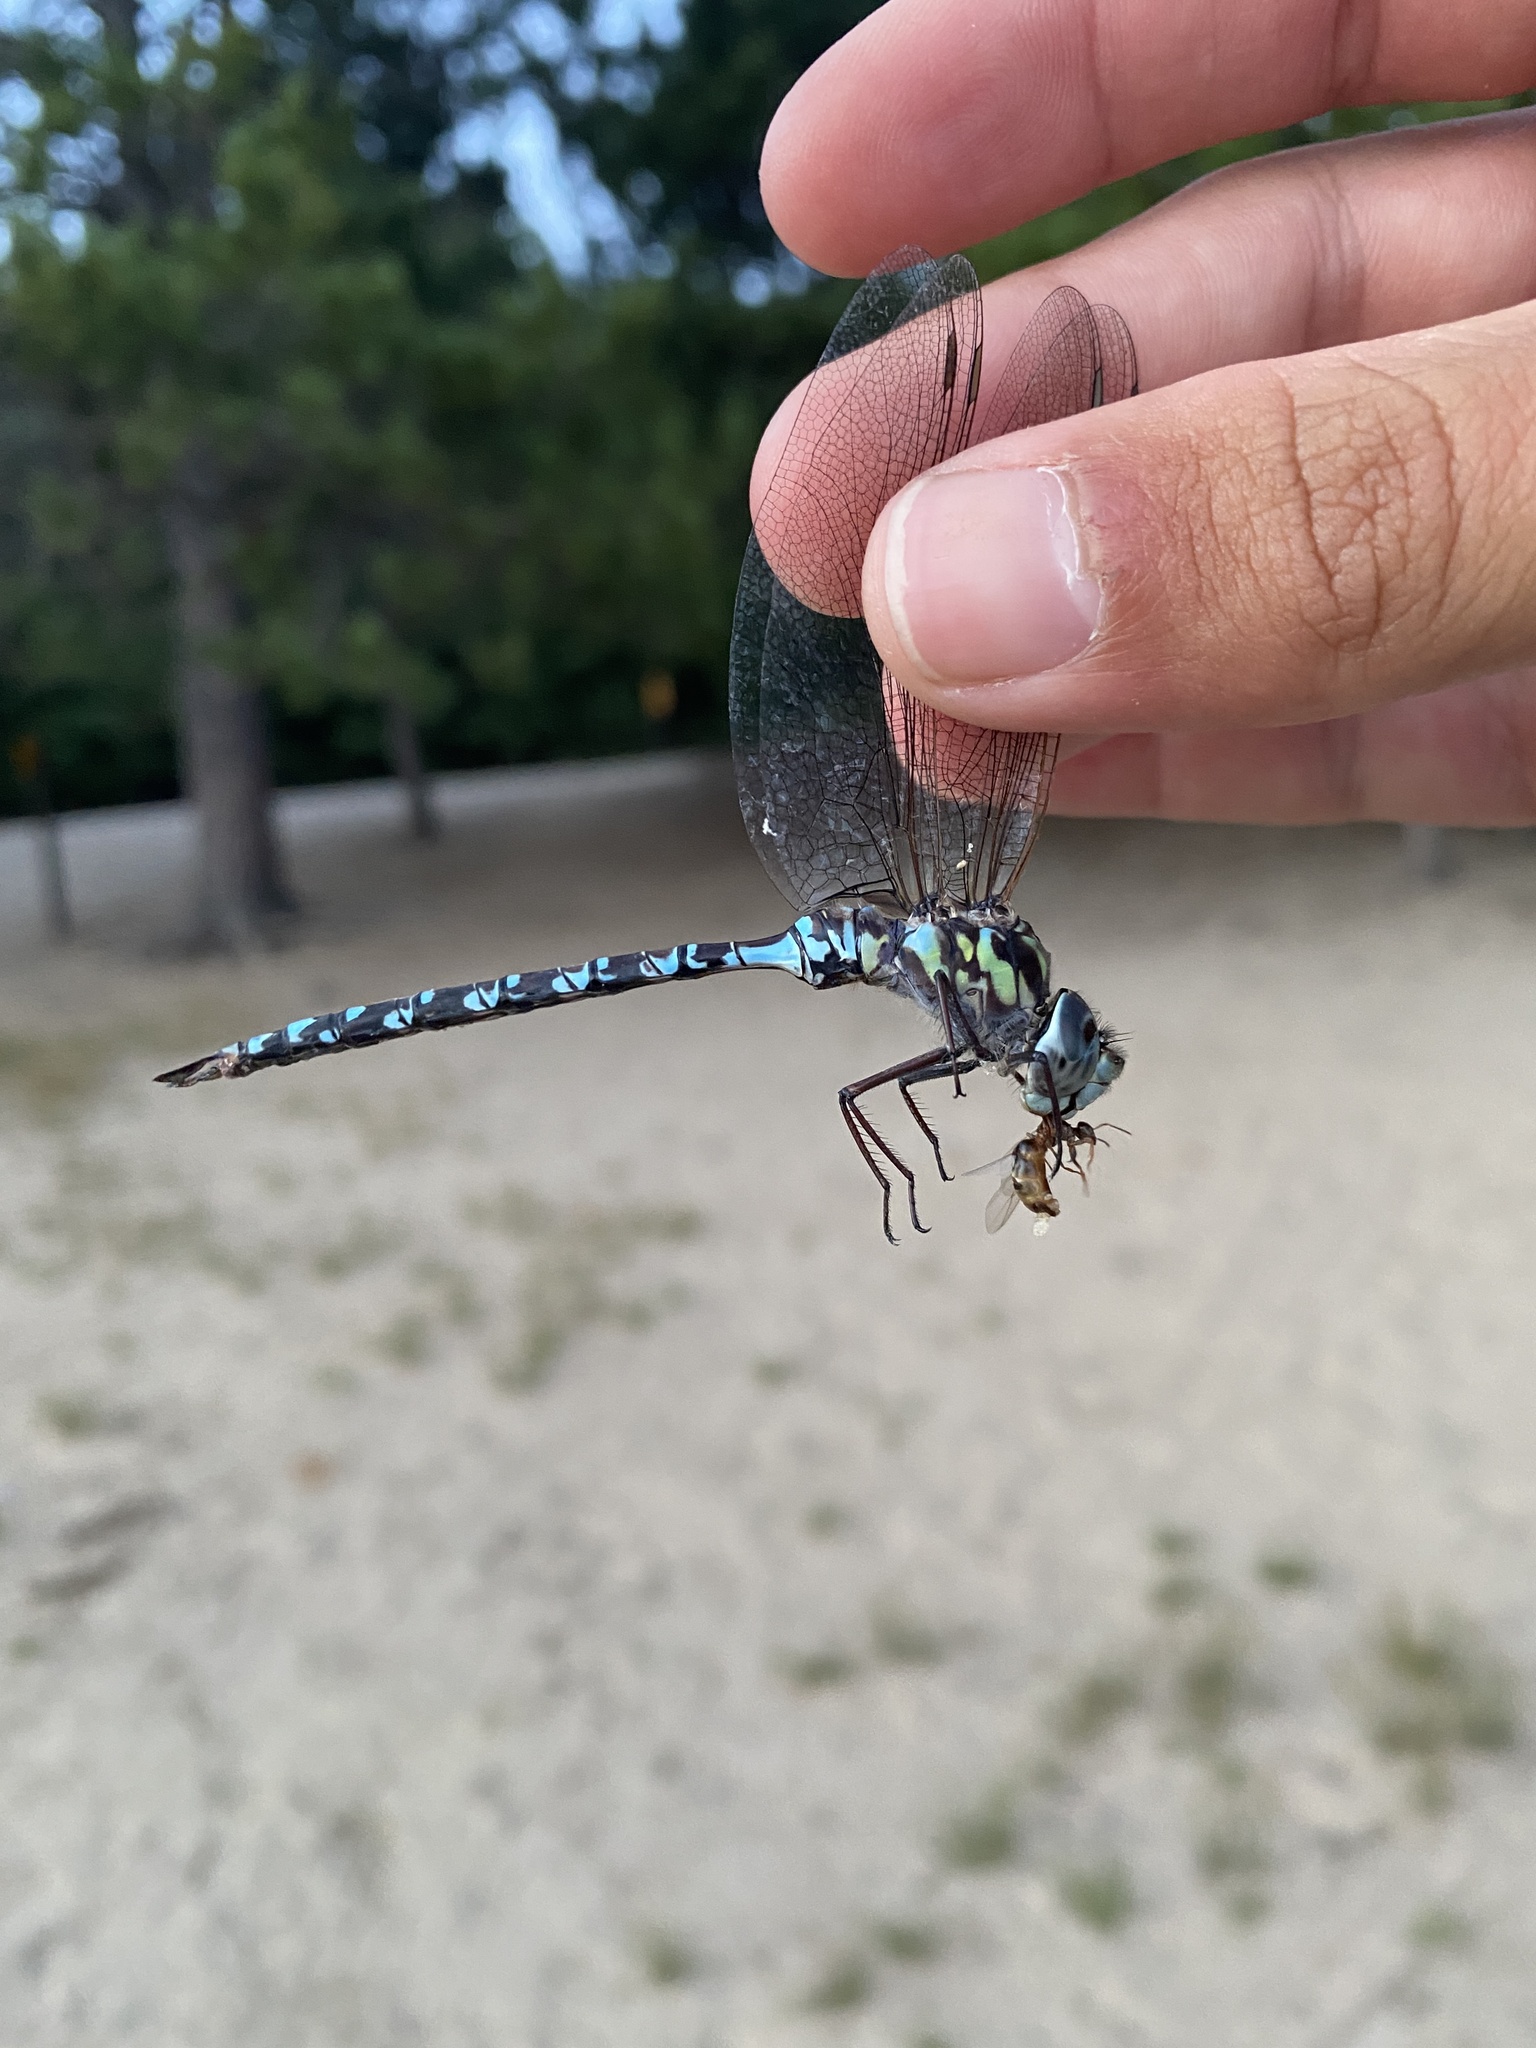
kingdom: Animalia
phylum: Arthropoda
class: Insecta
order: Odonata
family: Aeshnidae
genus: Aeshna
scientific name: Aeshna clepsydra
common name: Mottled darner
